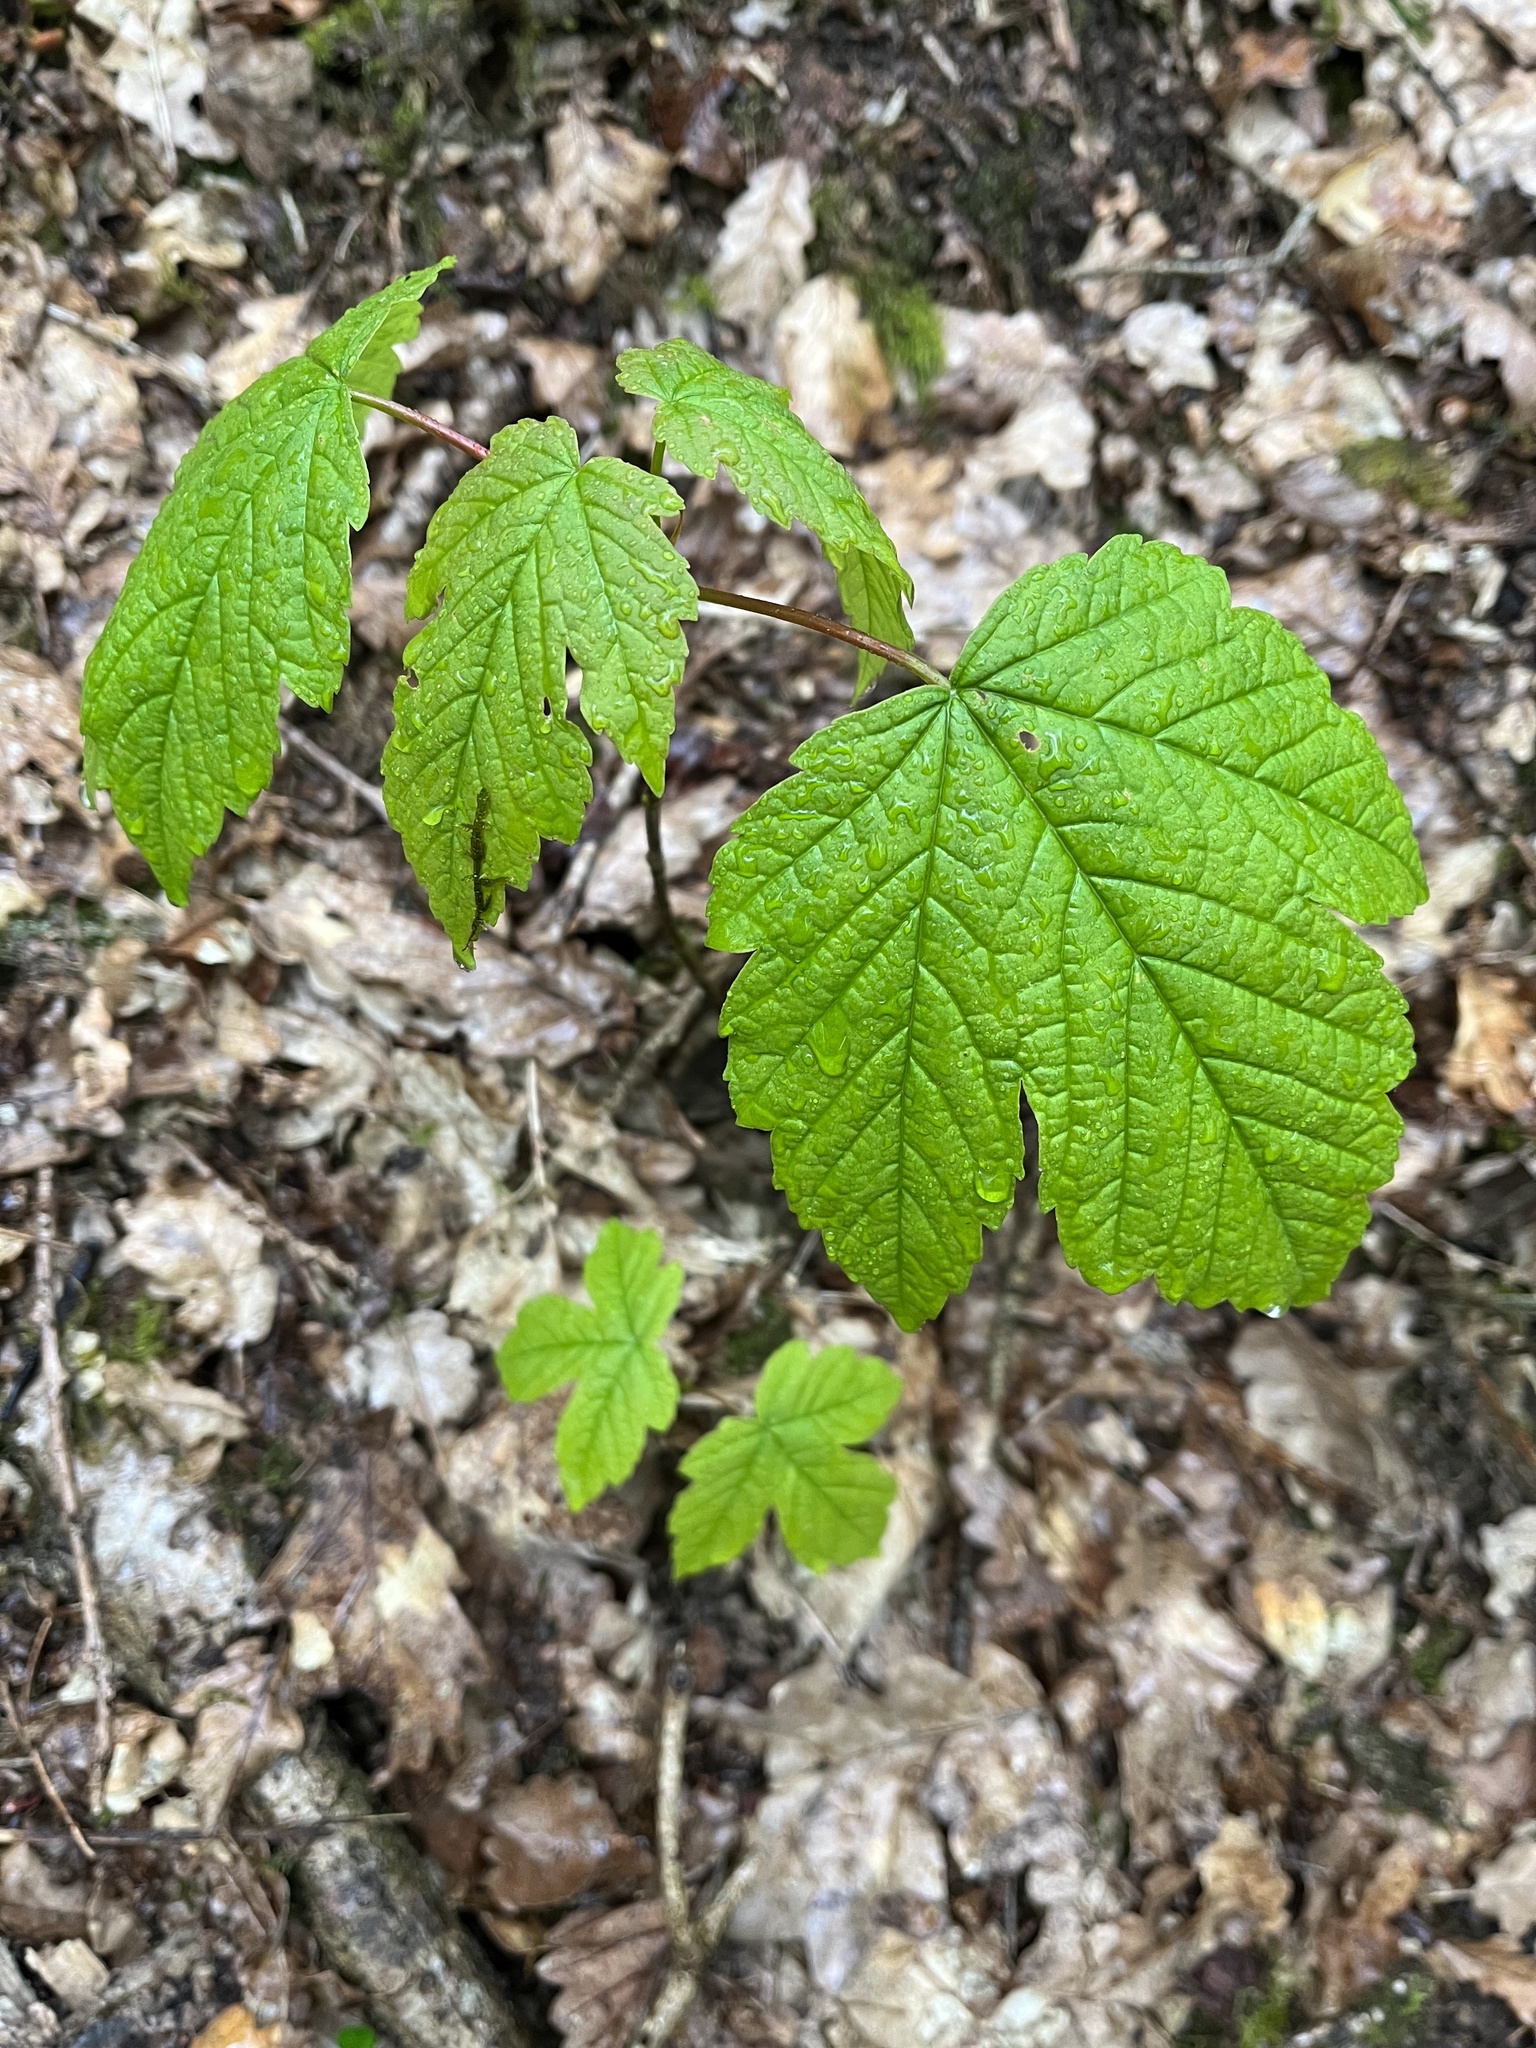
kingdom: Plantae
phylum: Tracheophyta
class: Magnoliopsida
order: Sapindales
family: Sapindaceae
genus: Acer
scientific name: Acer pseudoplatanus
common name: Sycamore
